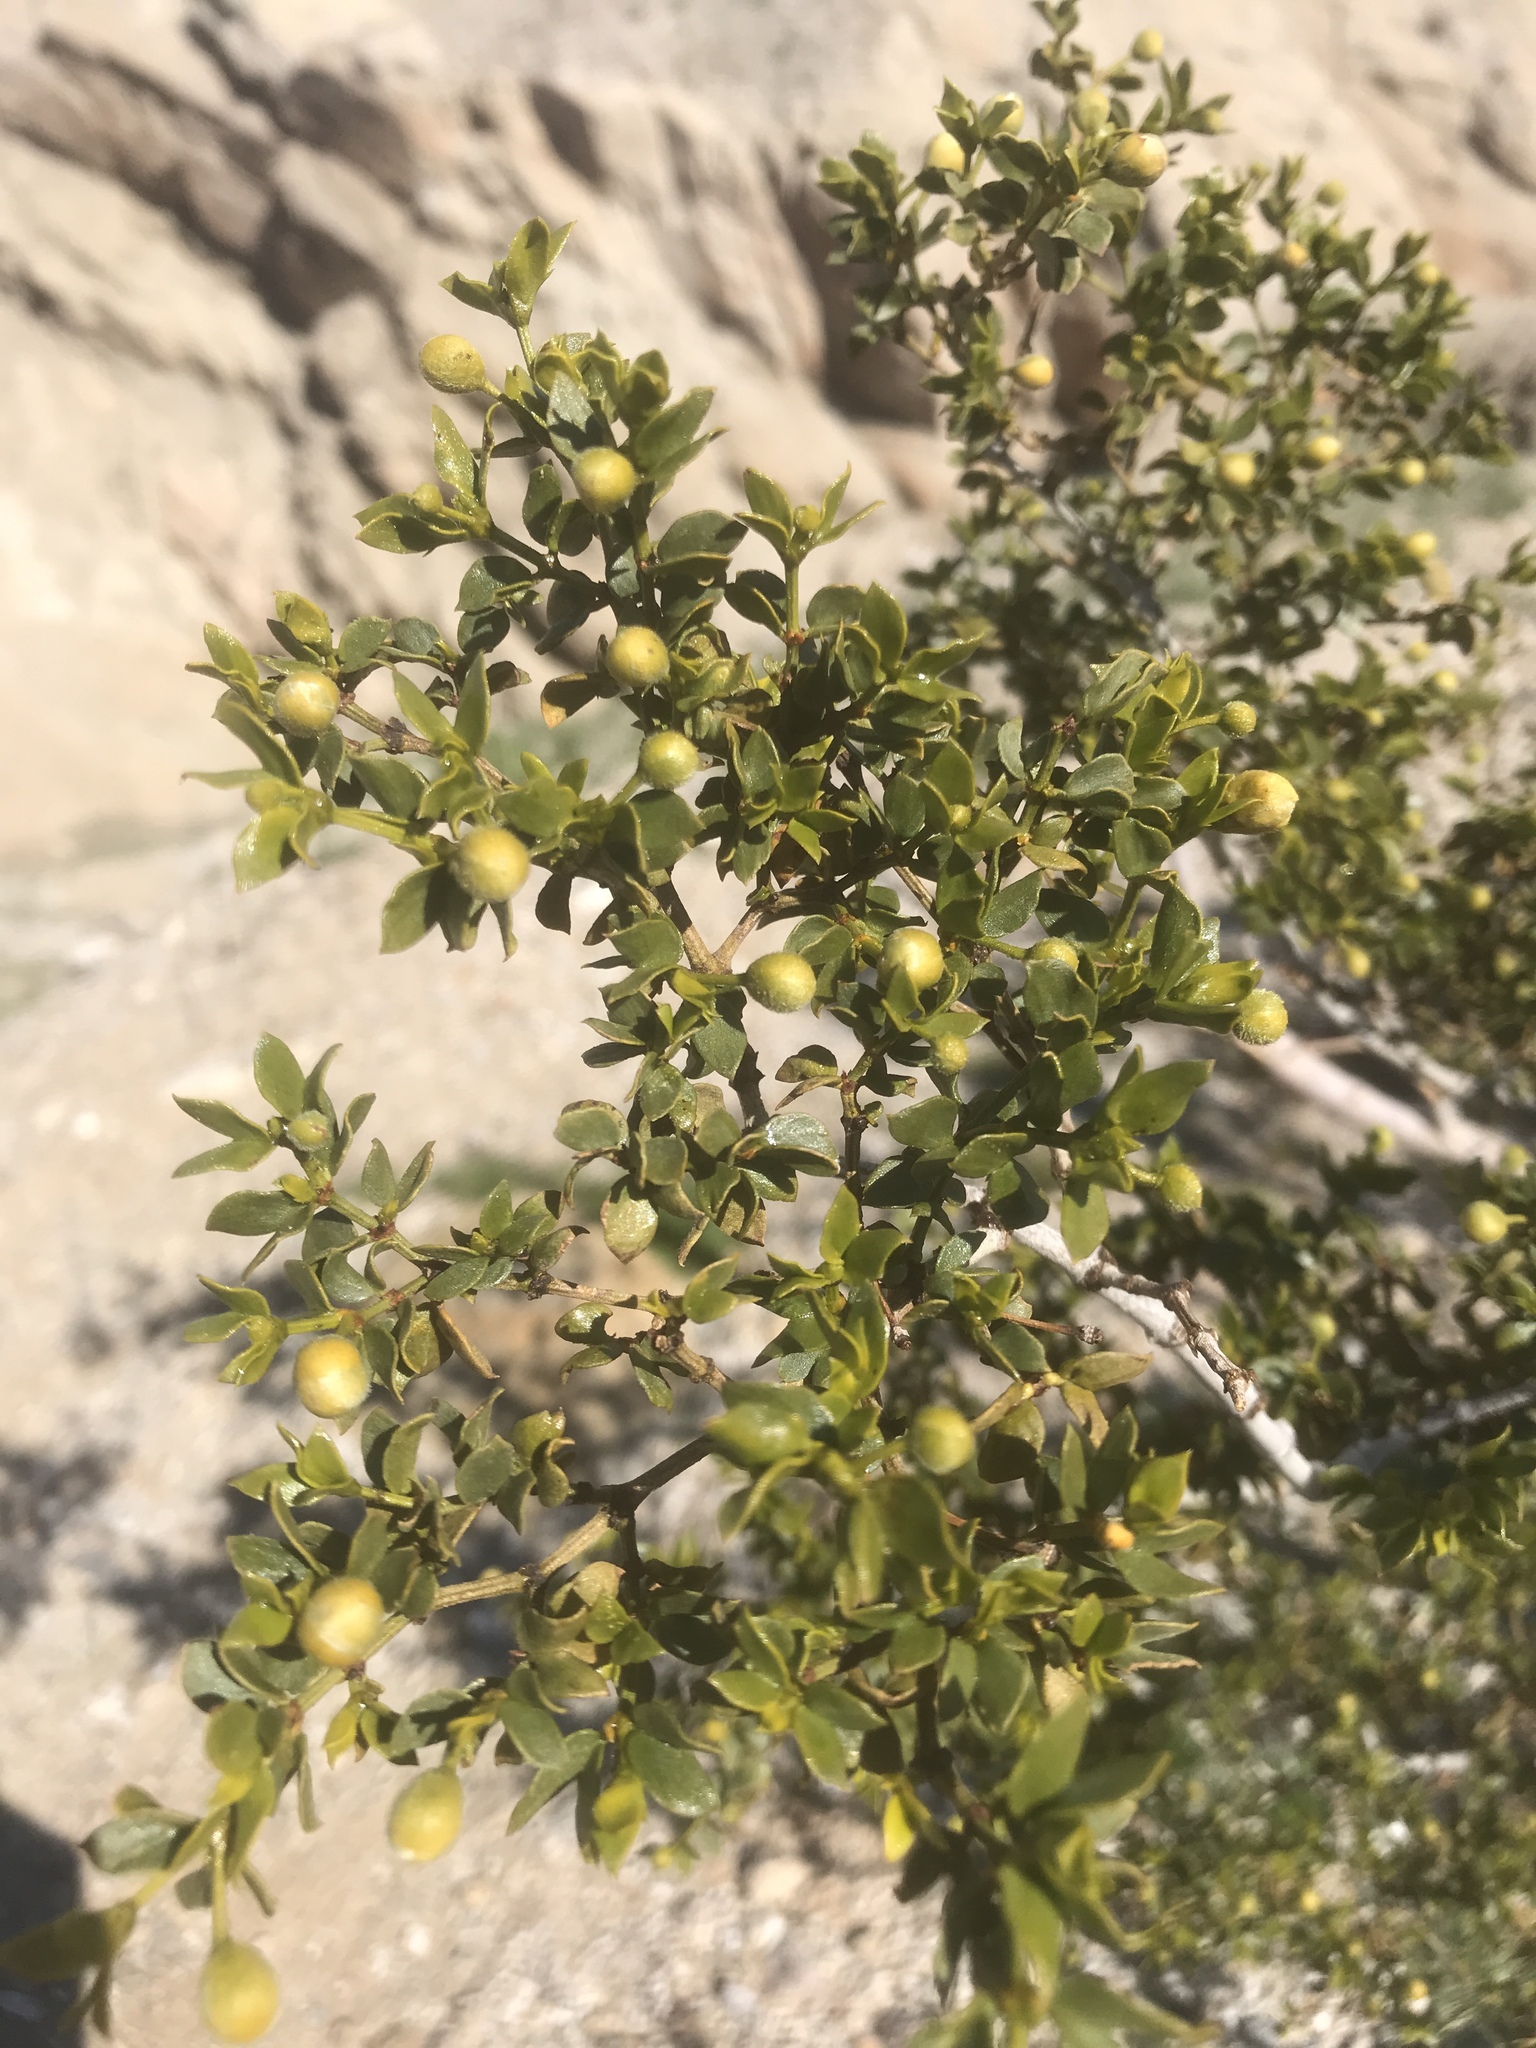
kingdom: Plantae
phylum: Tracheophyta
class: Magnoliopsida
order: Zygophyllales
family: Zygophyllaceae
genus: Larrea
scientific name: Larrea tridentata
